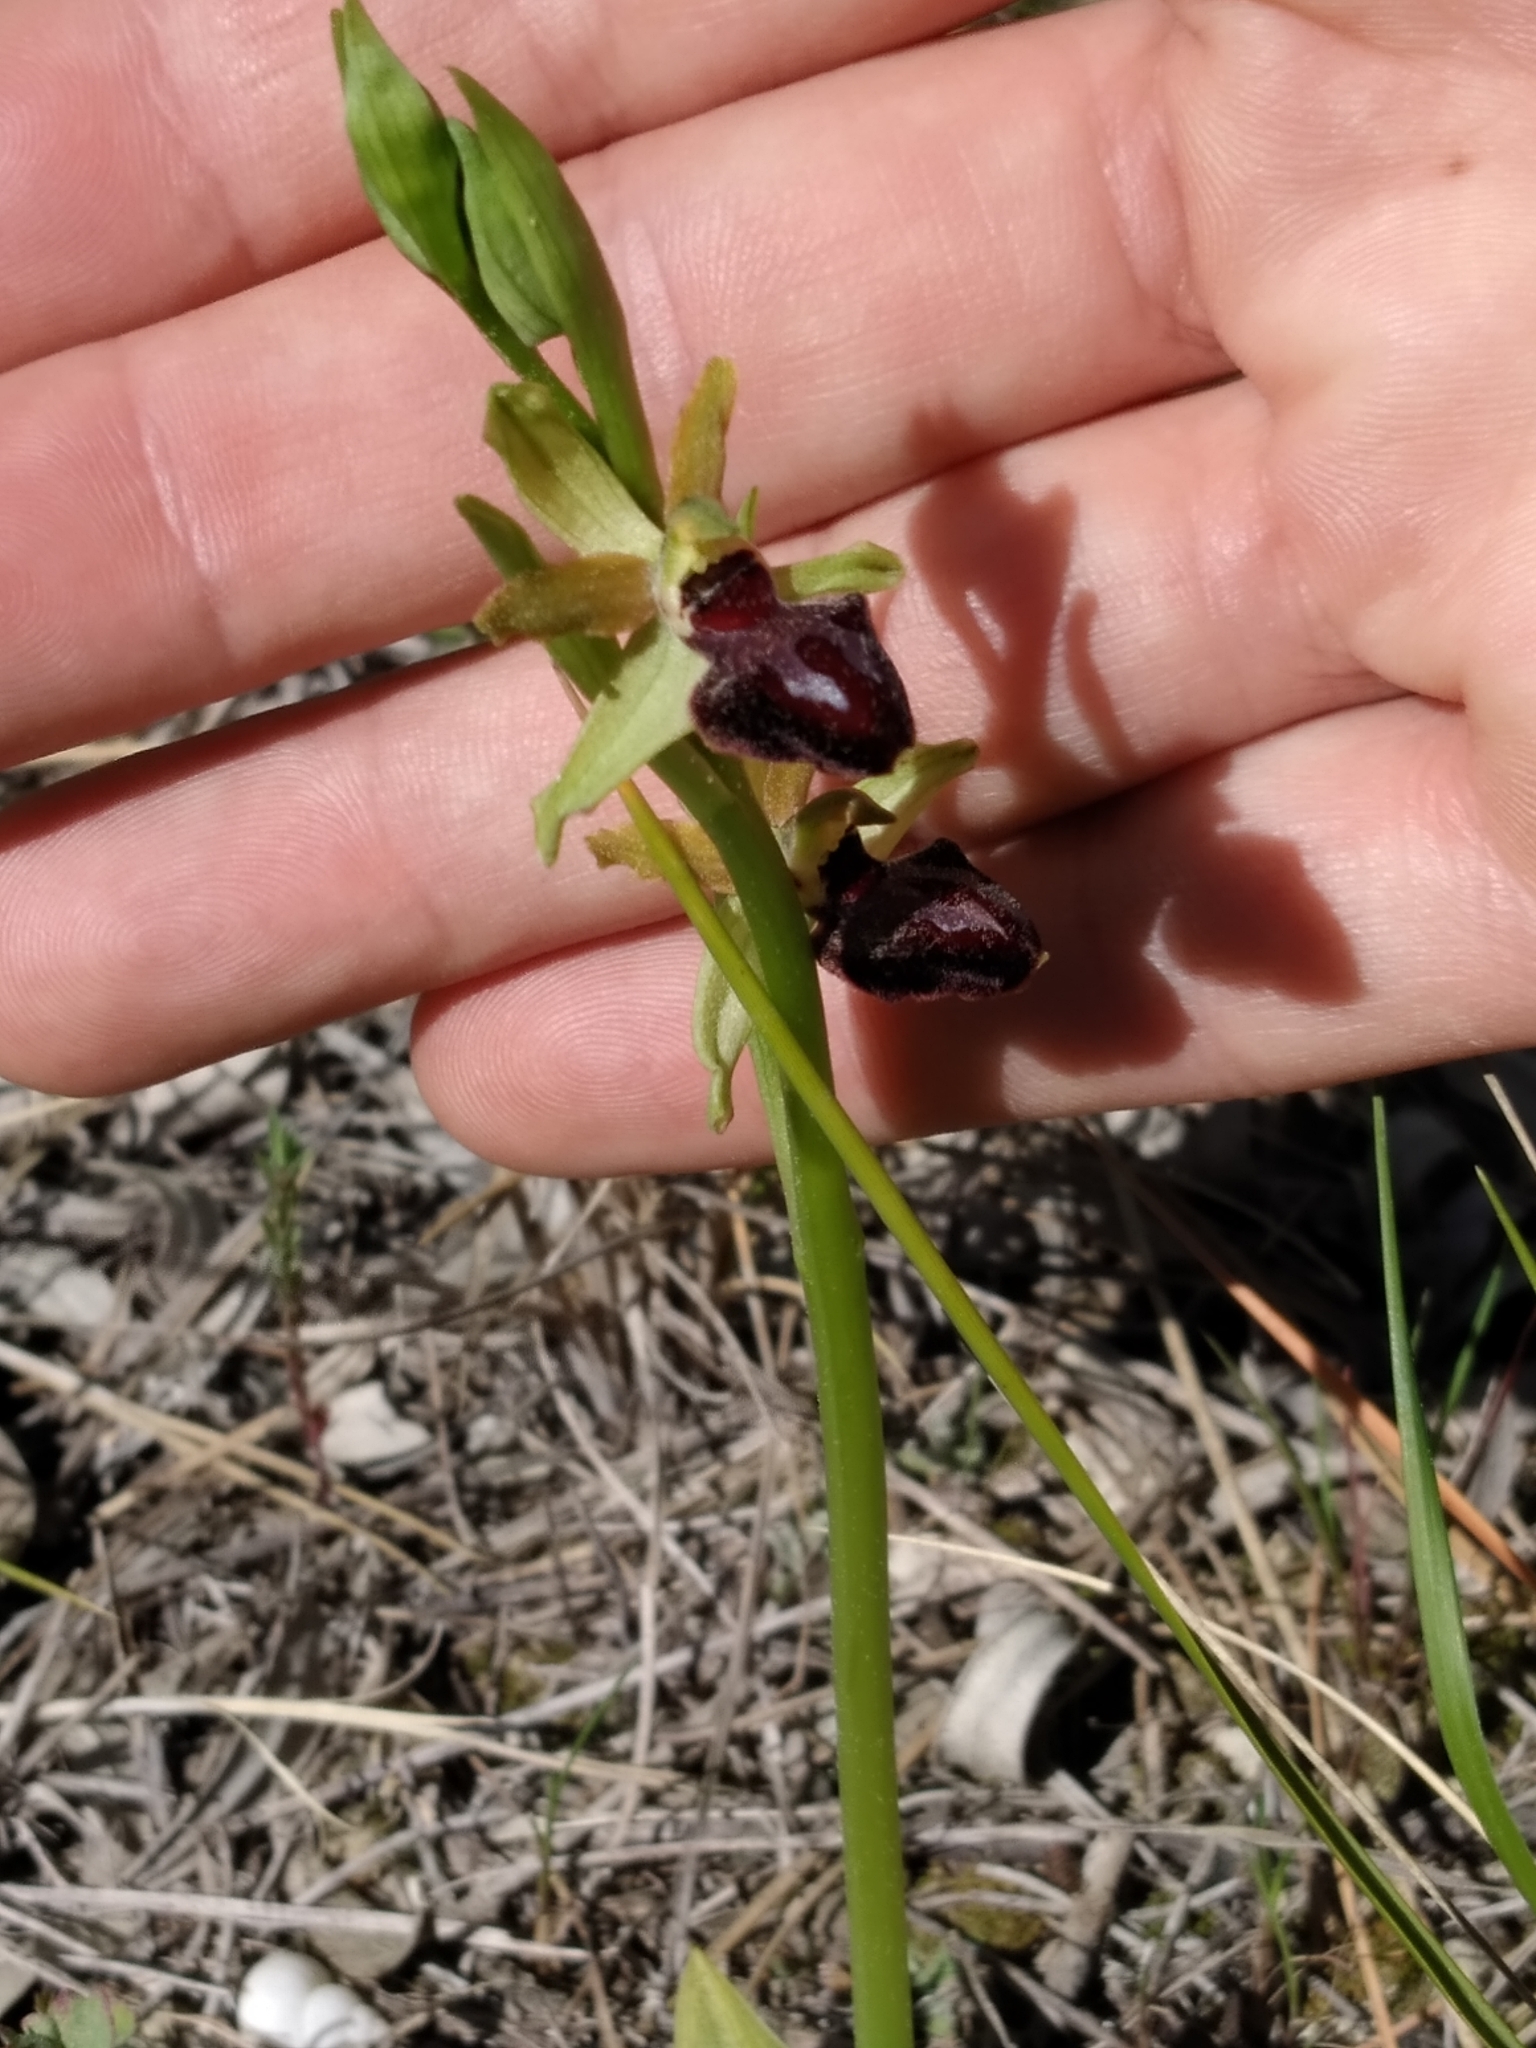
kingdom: Plantae
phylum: Tracheophyta
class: Liliopsida
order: Asparagales
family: Orchidaceae
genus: Ophrys
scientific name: Ophrys arachnitiformis
